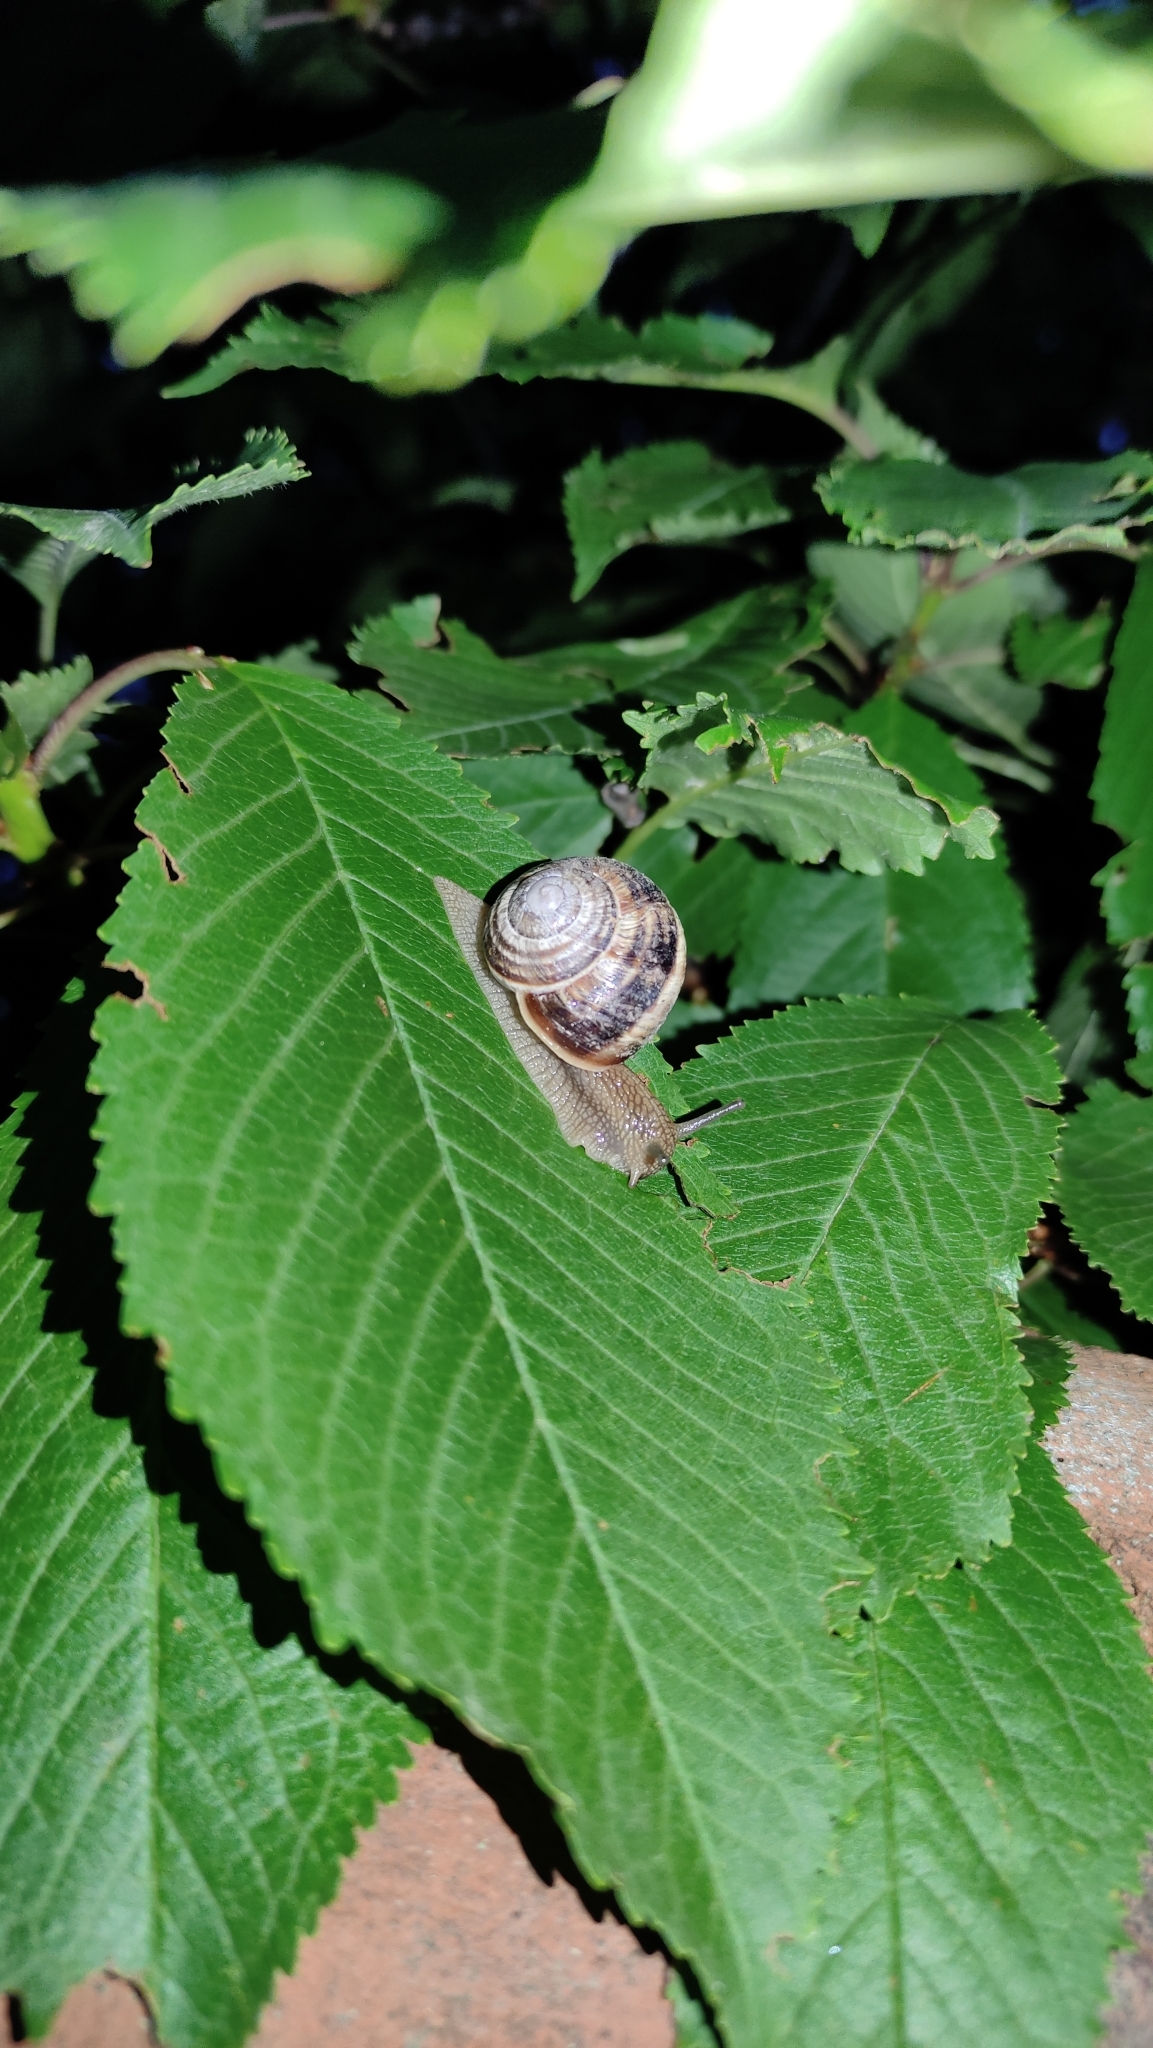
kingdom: Animalia
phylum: Mollusca
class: Gastropoda
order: Stylommatophora
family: Helicidae
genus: Helix
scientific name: Helix lucorum
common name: Turkish snail
